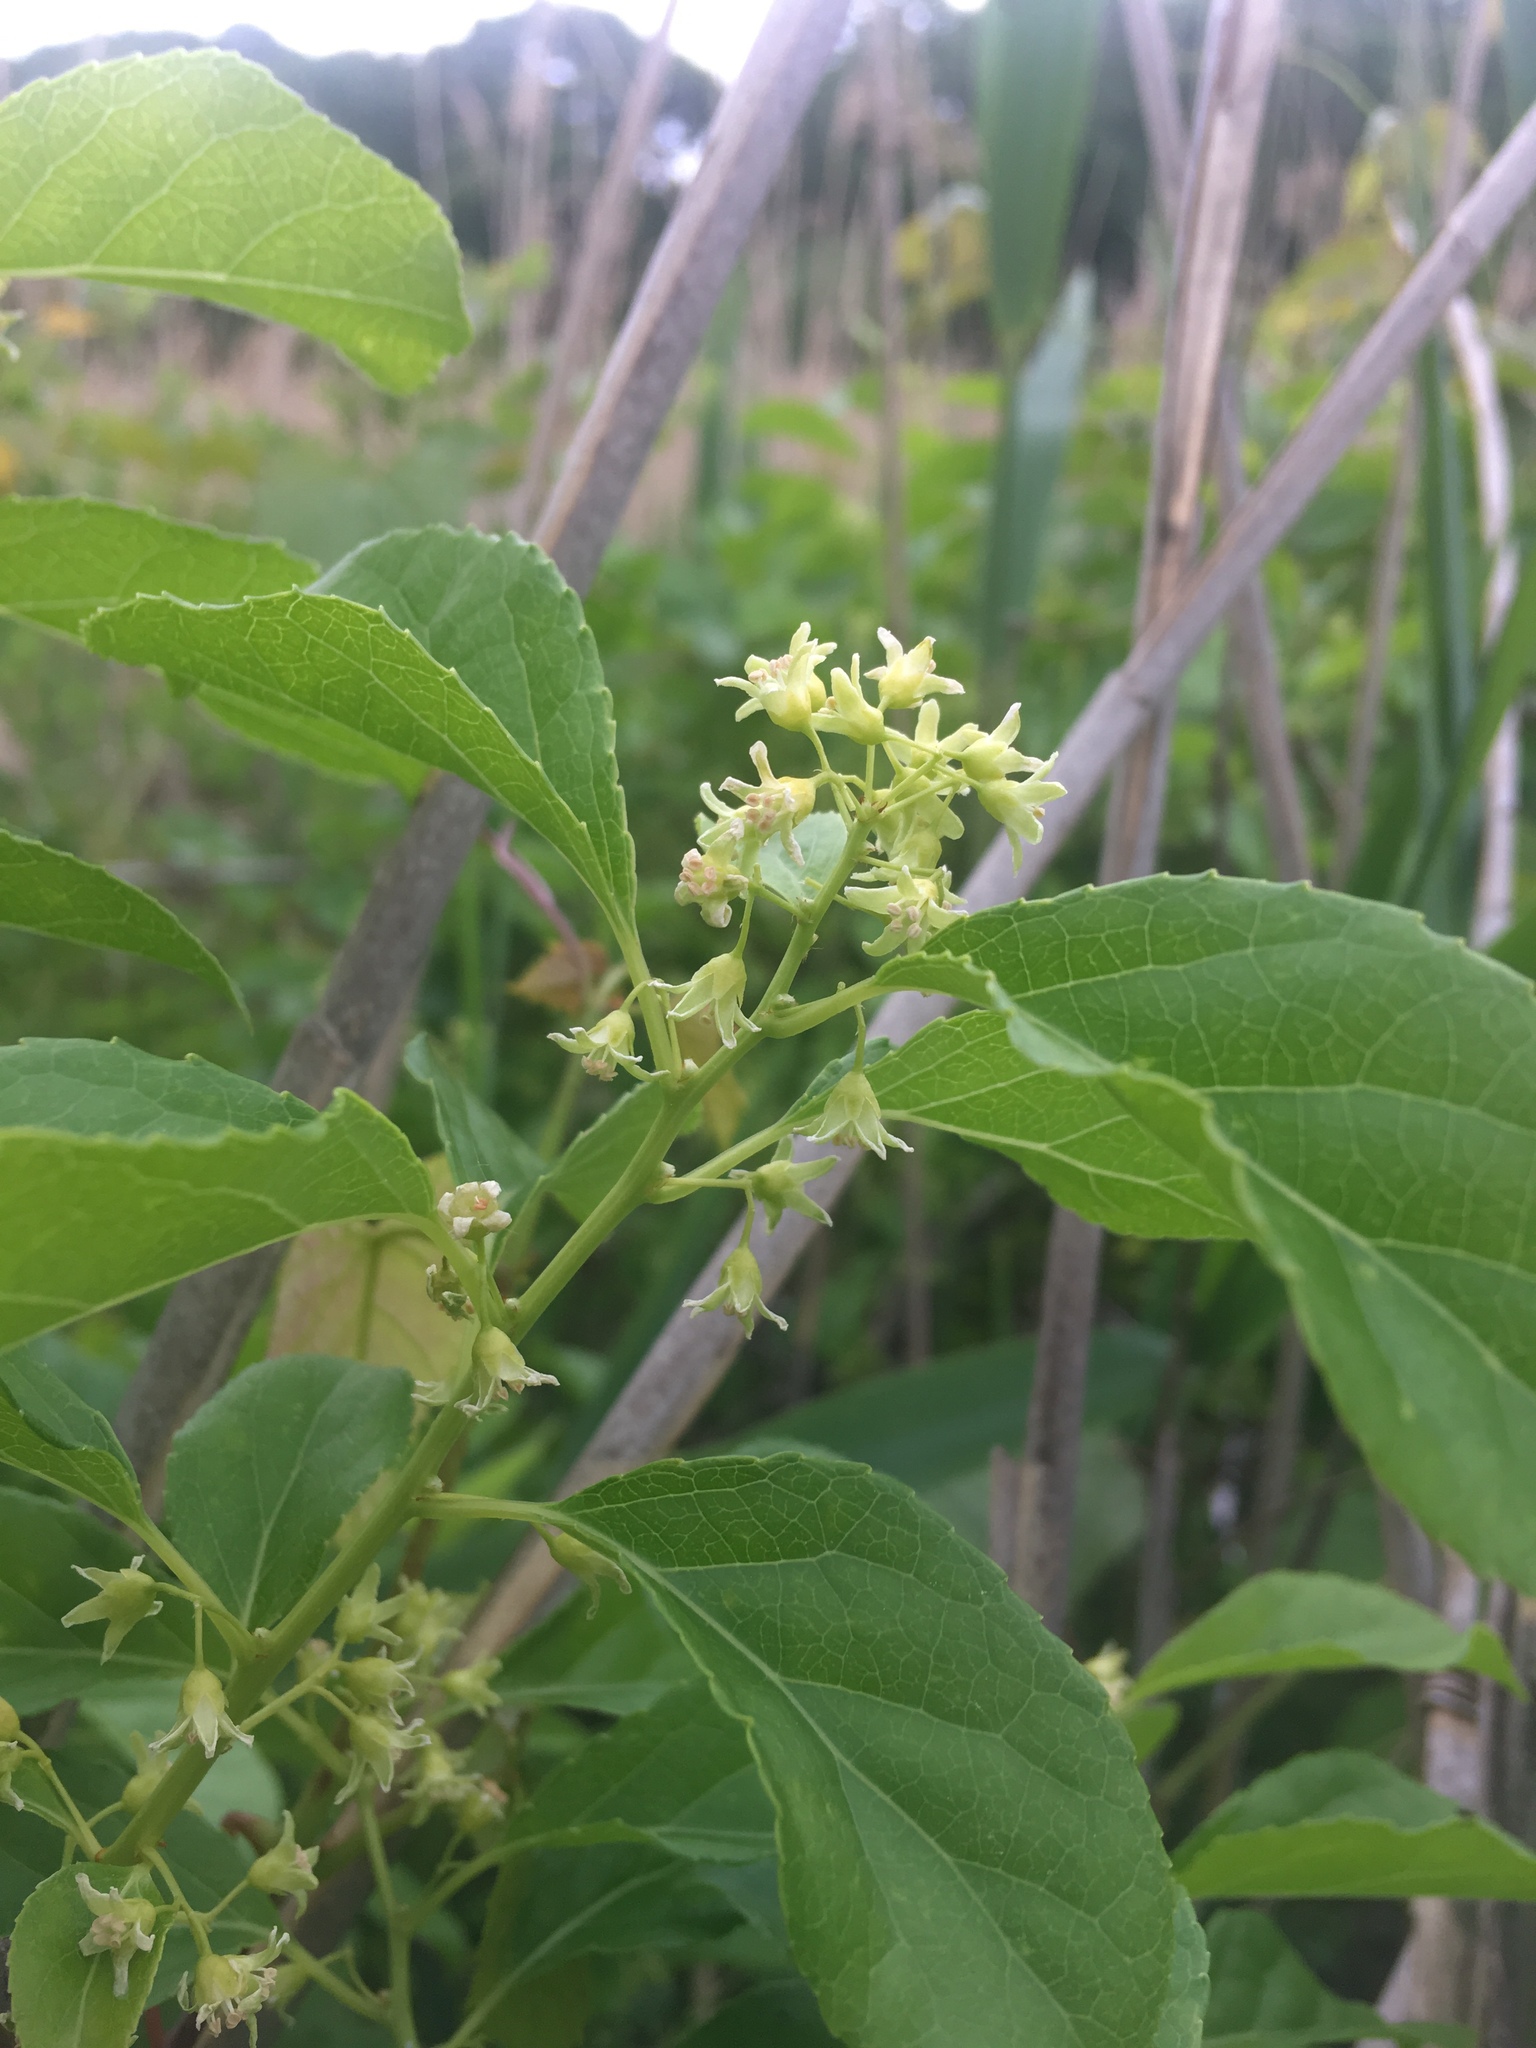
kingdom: Plantae
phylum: Tracheophyta
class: Magnoliopsida
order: Celastrales
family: Celastraceae
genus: Celastrus
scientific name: Celastrus orbiculatus
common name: Oriental bittersweet
